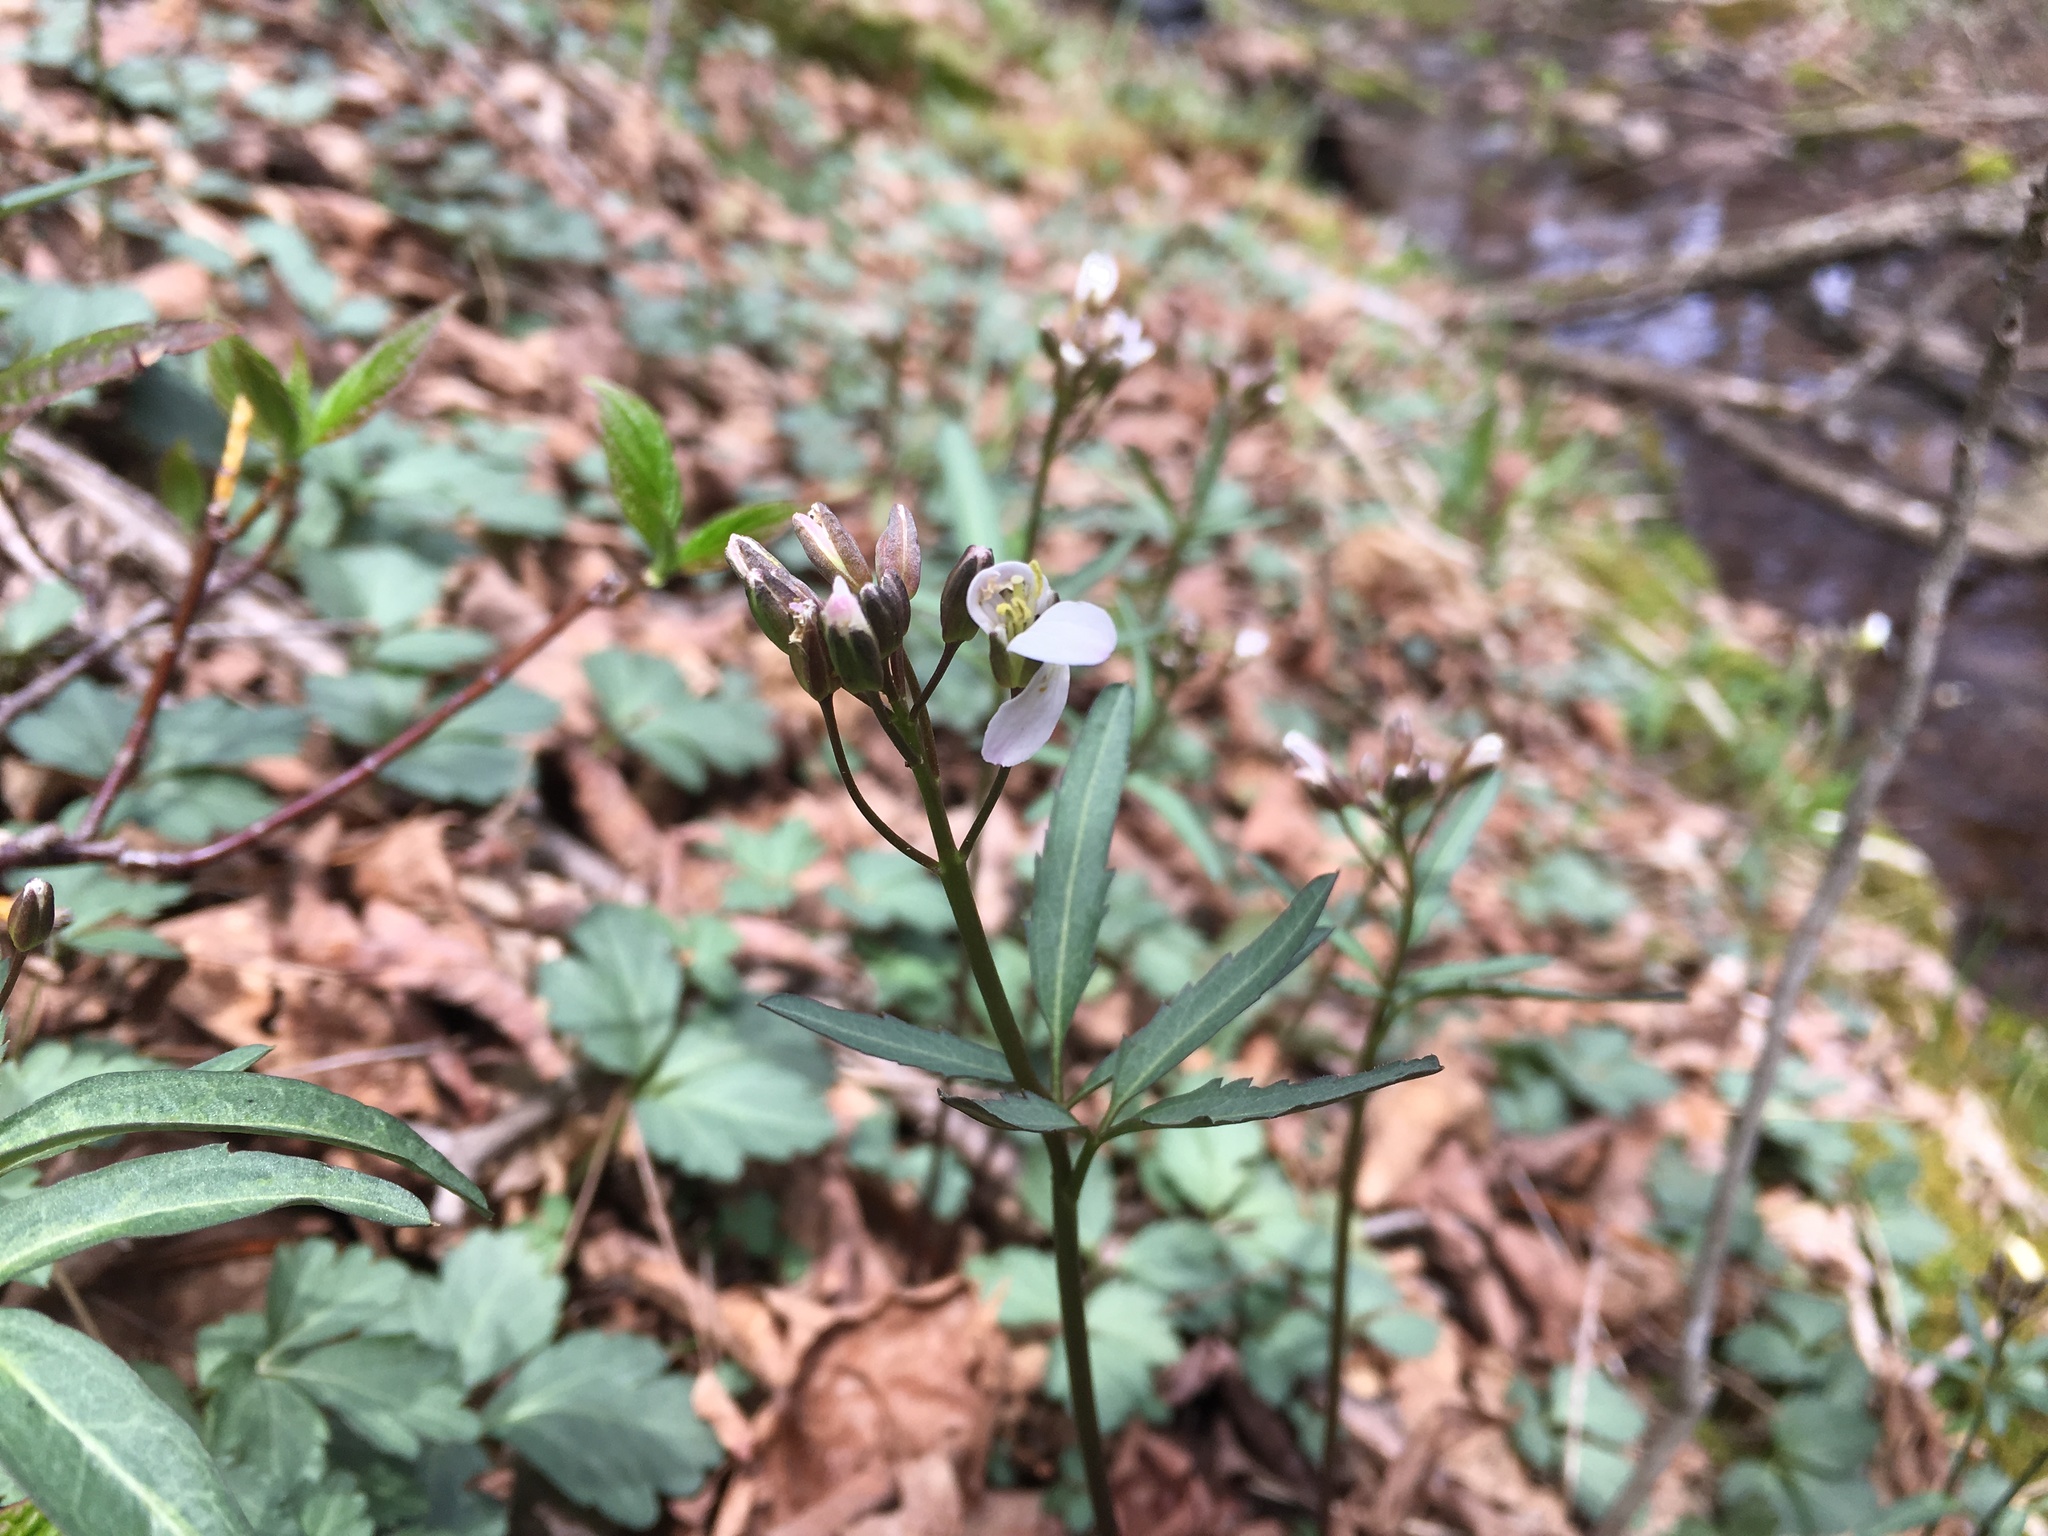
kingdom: Plantae
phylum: Tracheophyta
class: Magnoliopsida
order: Brassicales
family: Brassicaceae
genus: Cardamine
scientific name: Cardamine angustata
